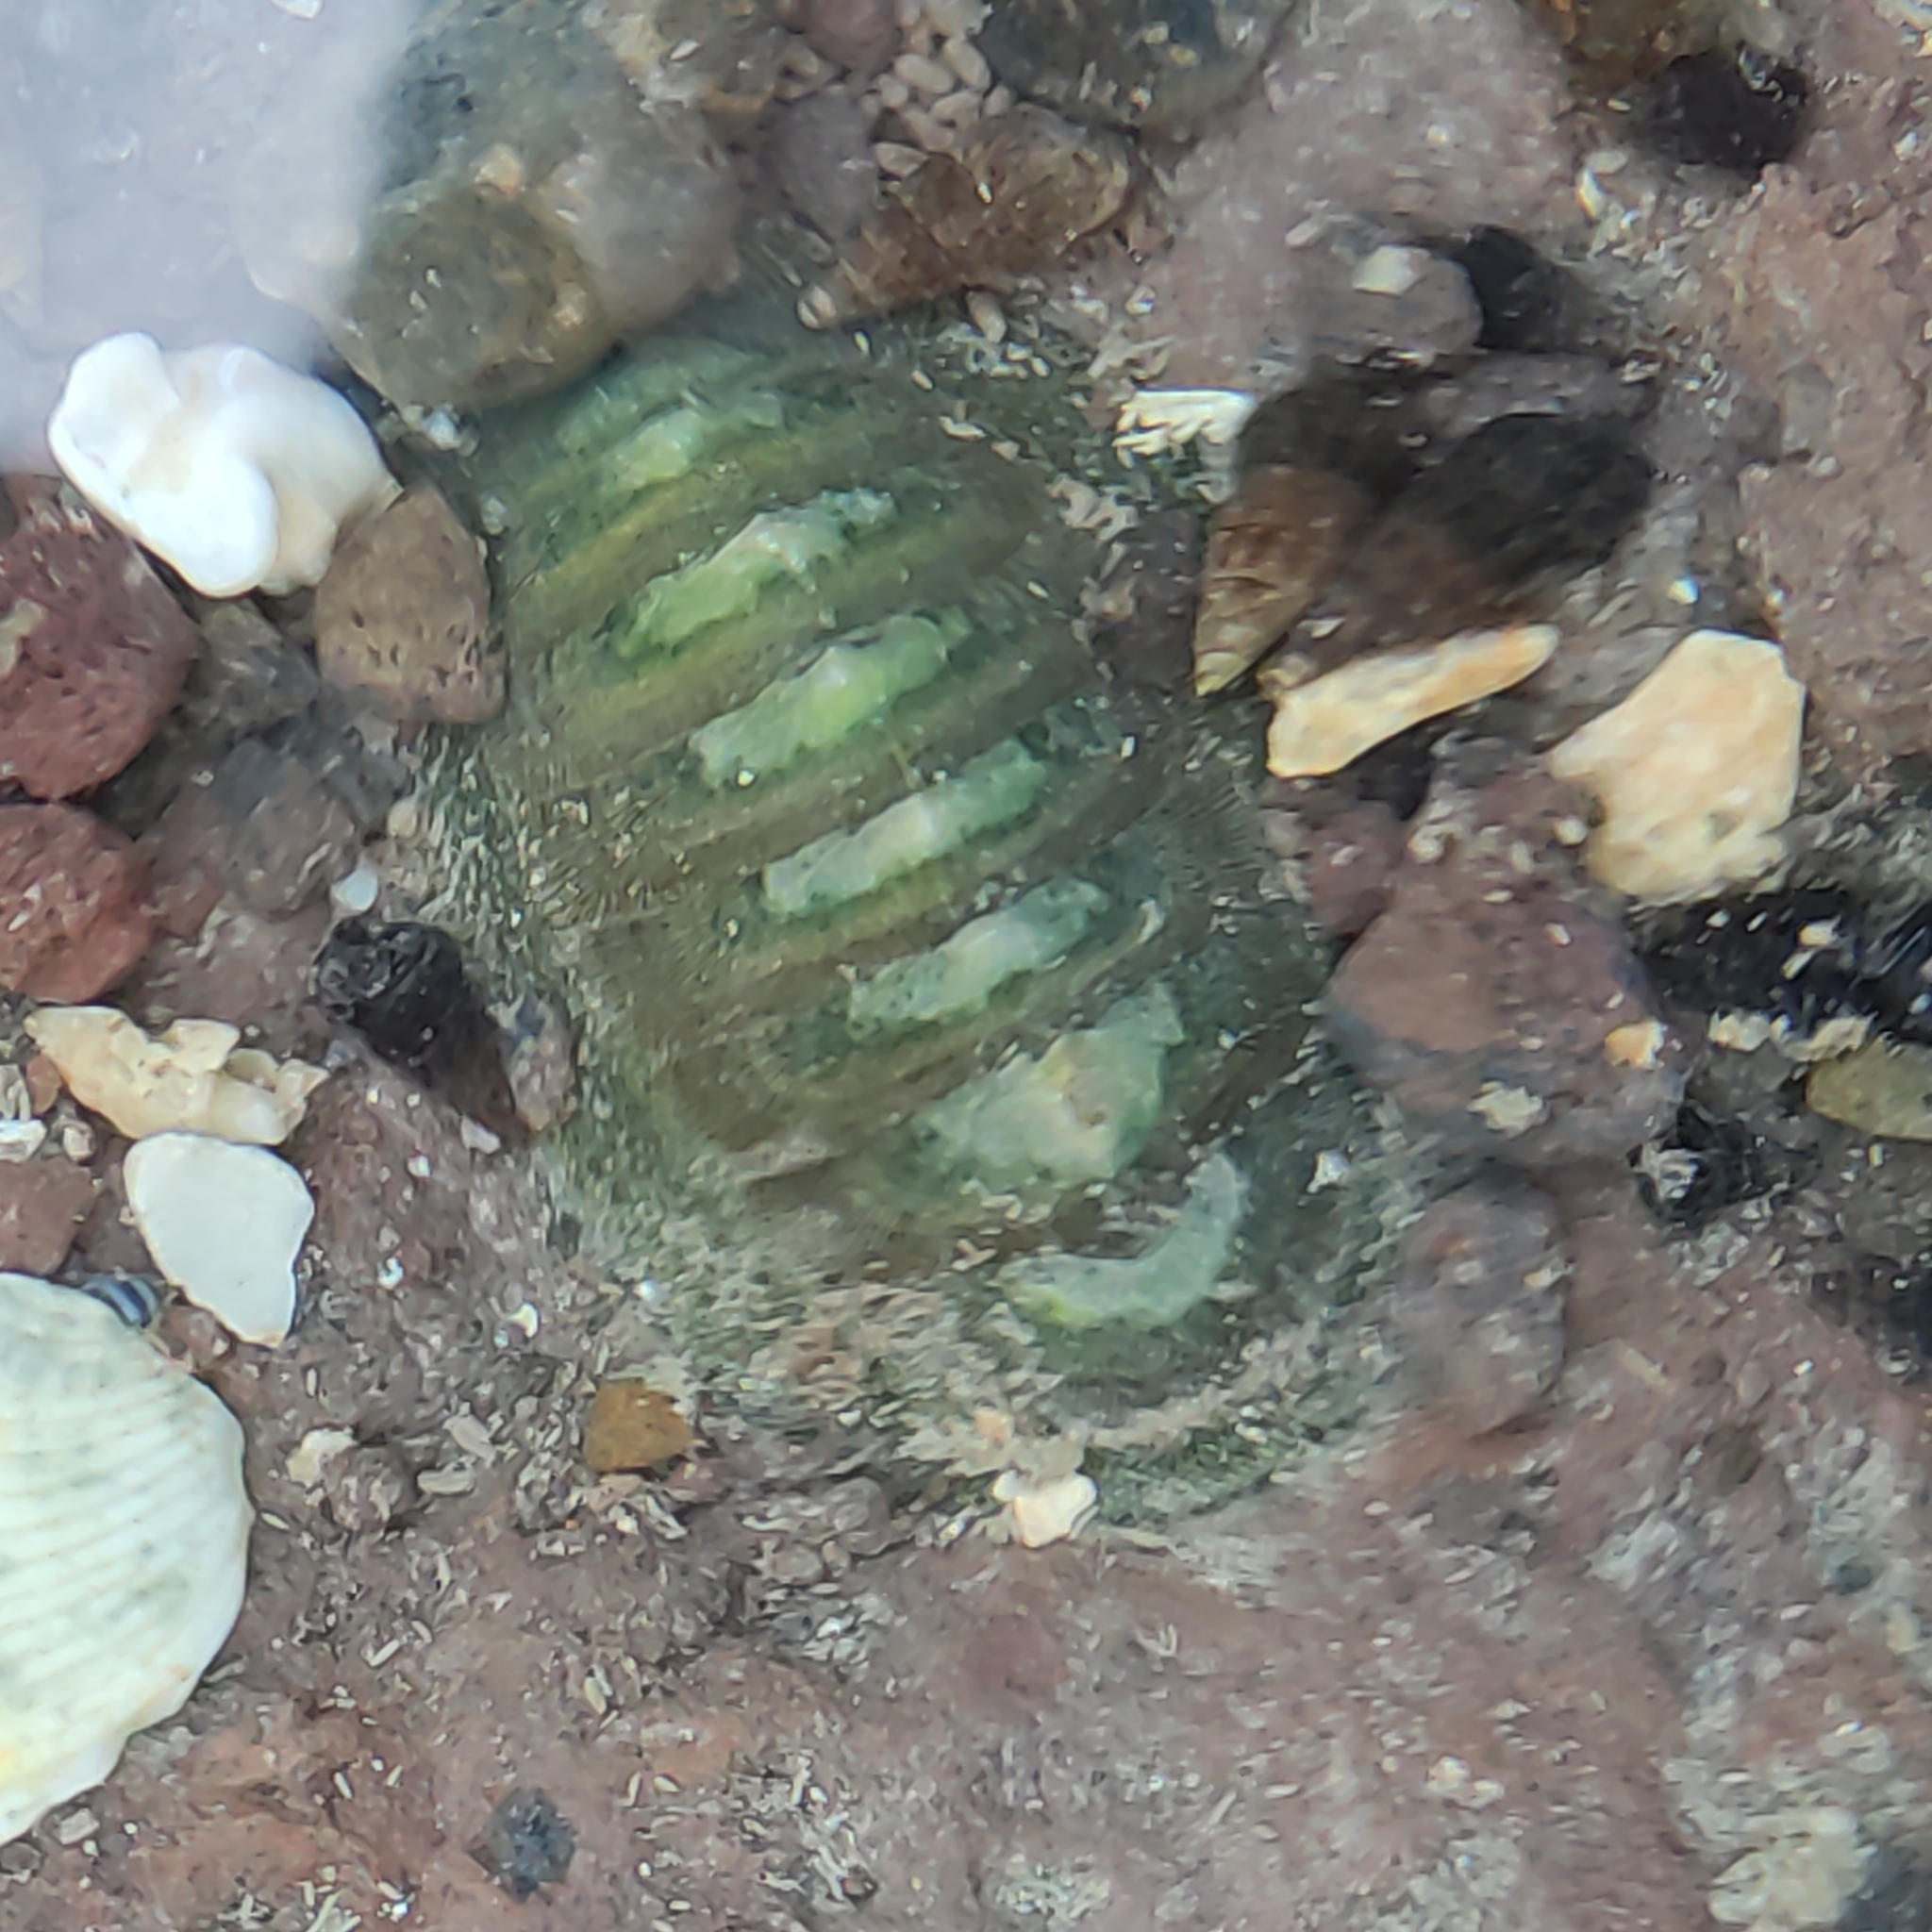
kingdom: Animalia
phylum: Mollusca
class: Polyplacophora
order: Chitonida
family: Chitonidae
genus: Chiton
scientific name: Chiton glaucus
